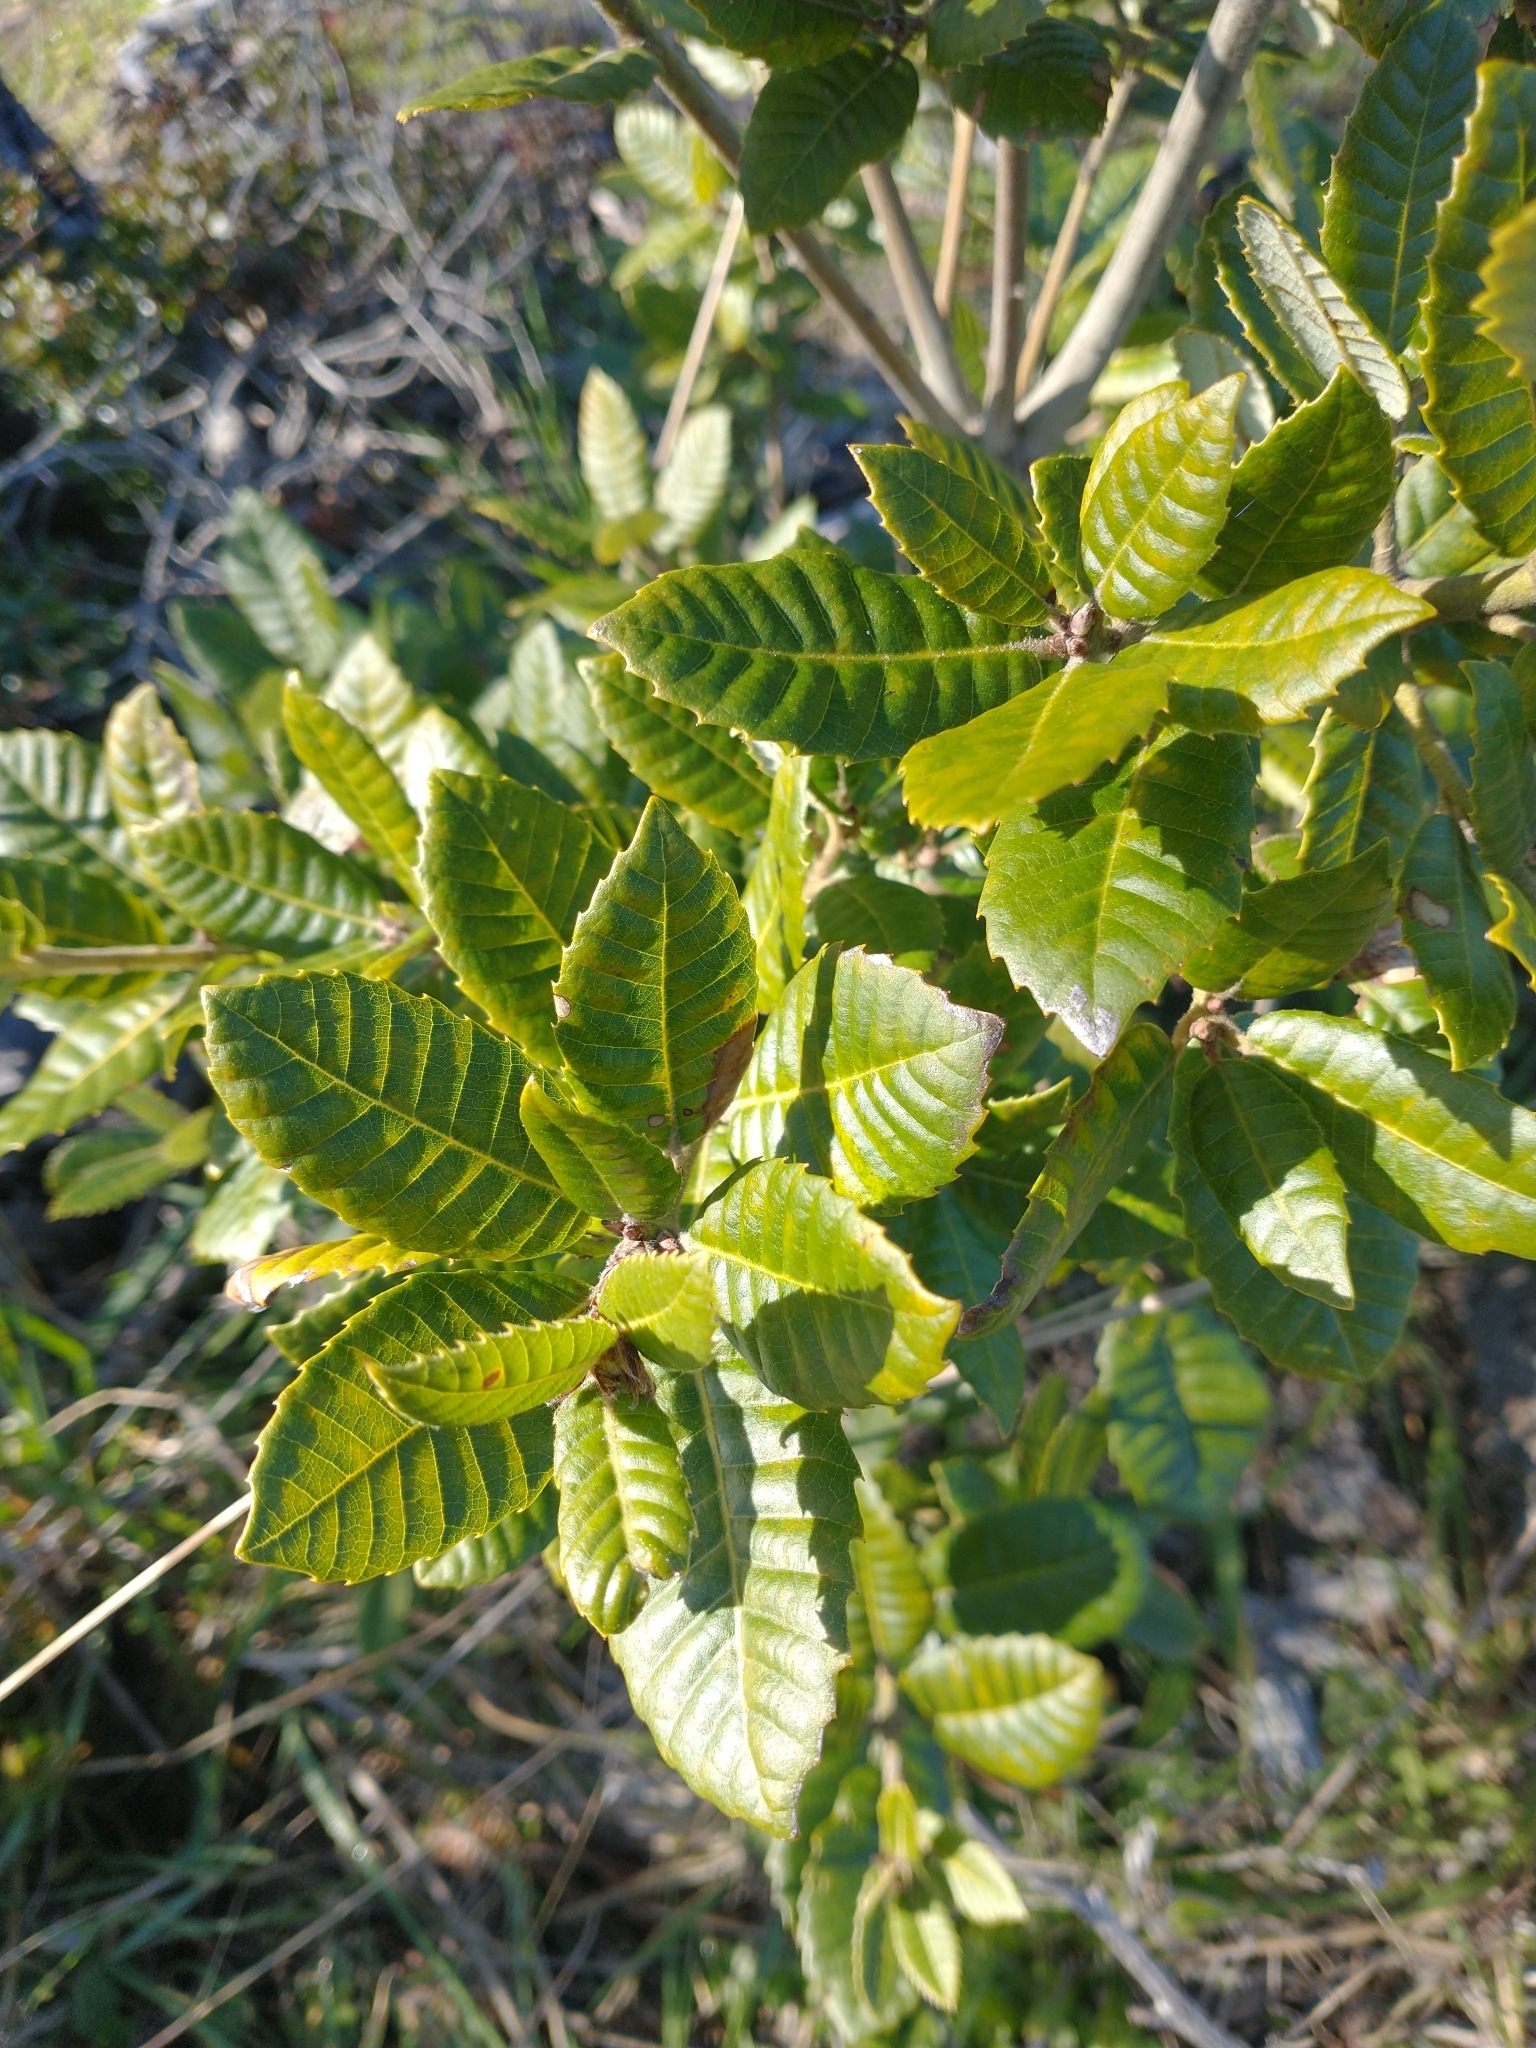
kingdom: Plantae
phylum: Tracheophyta
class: Magnoliopsida
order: Fagales
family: Fagaceae
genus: Notholithocarpus
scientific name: Notholithocarpus densiflorus
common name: Tan bark oak
